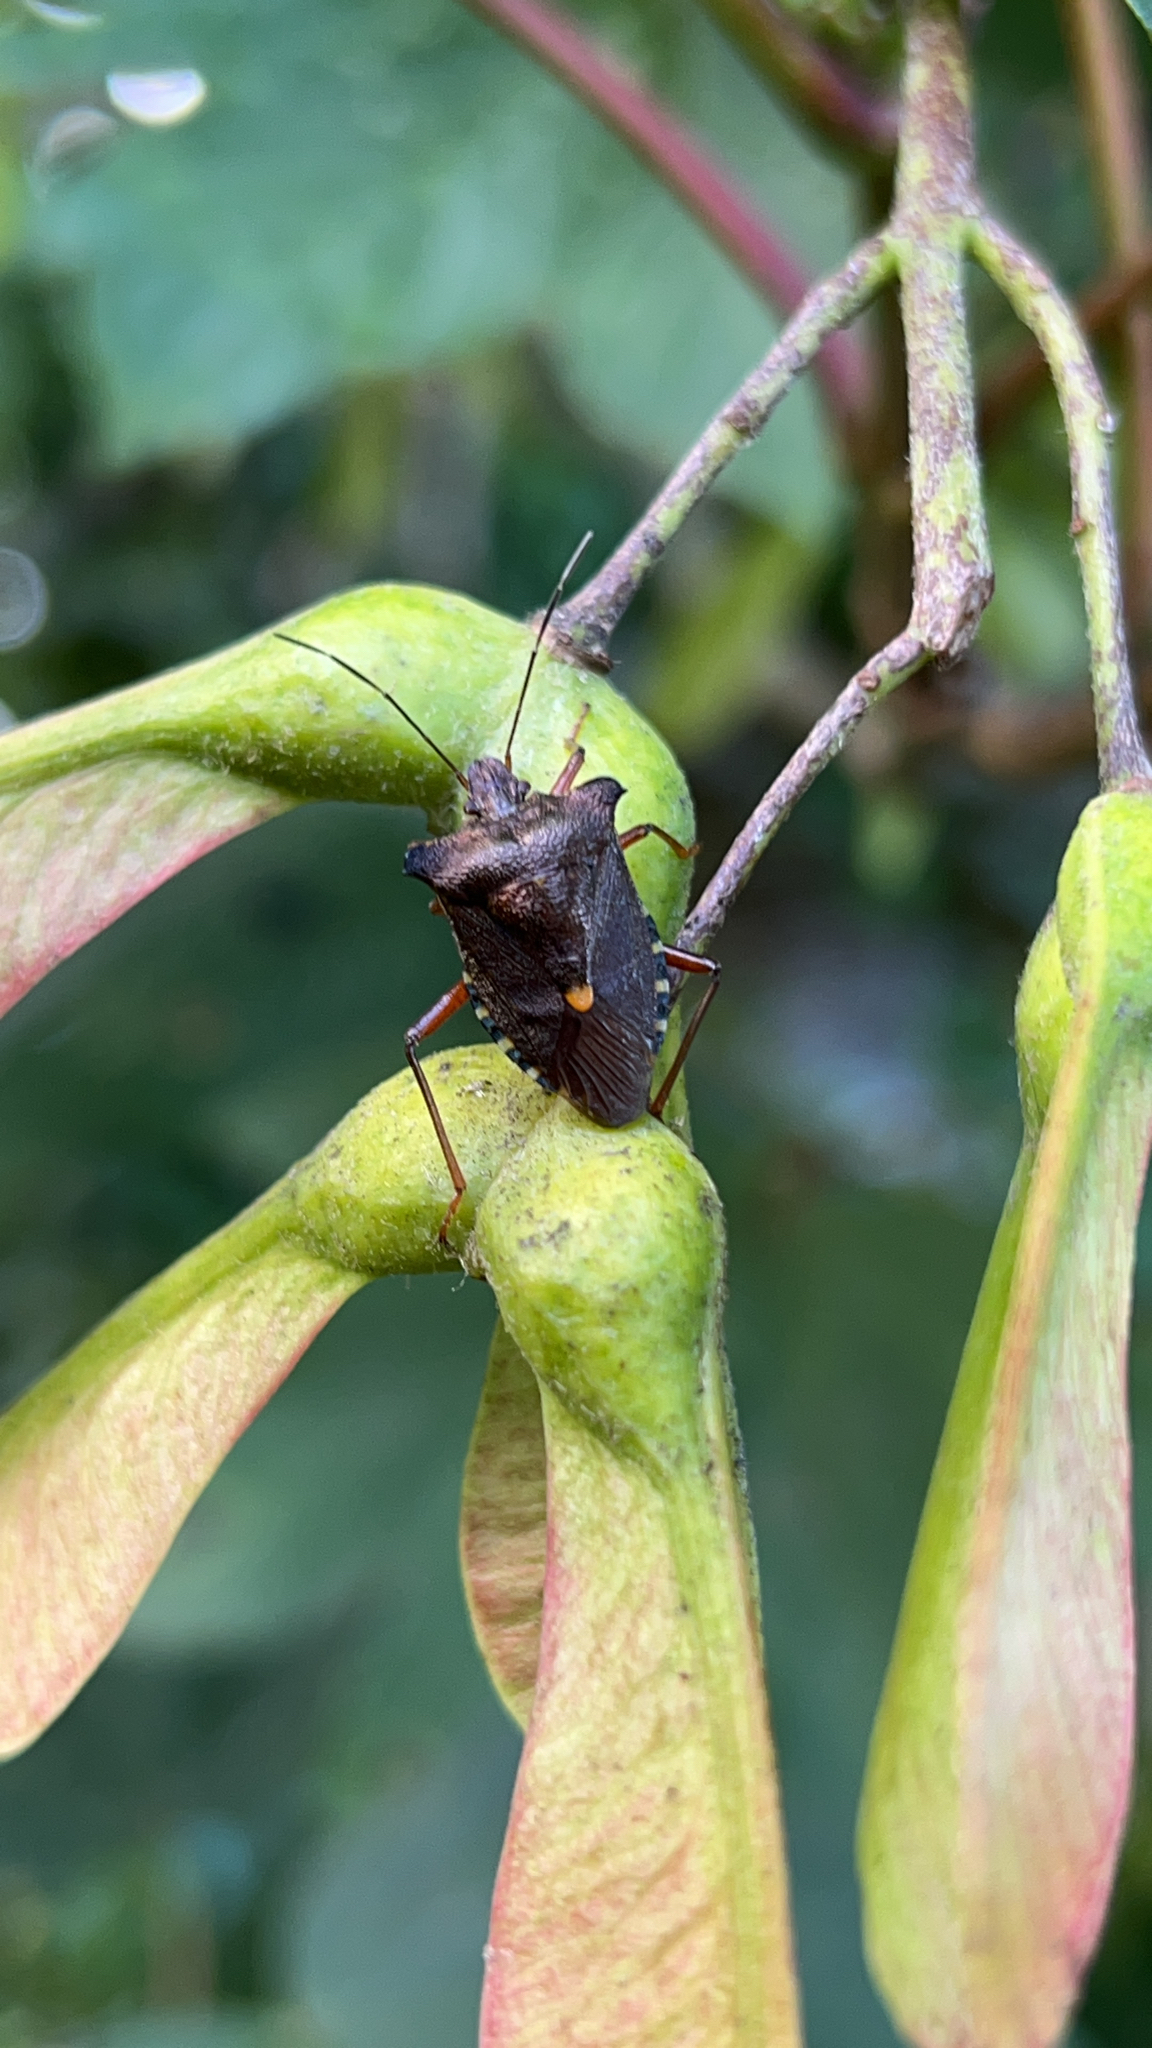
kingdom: Animalia
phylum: Arthropoda
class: Insecta
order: Hemiptera
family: Pentatomidae
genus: Pentatoma
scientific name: Pentatoma rufipes
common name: Forest bug
